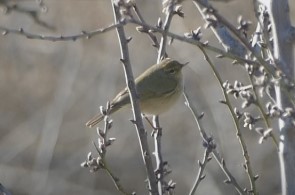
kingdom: Animalia
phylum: Chordata
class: Aves
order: Passeriformes
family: Phylloscopidae
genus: Phylloscopus
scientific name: Phylloscopus collybita
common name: Common chiffchaff
